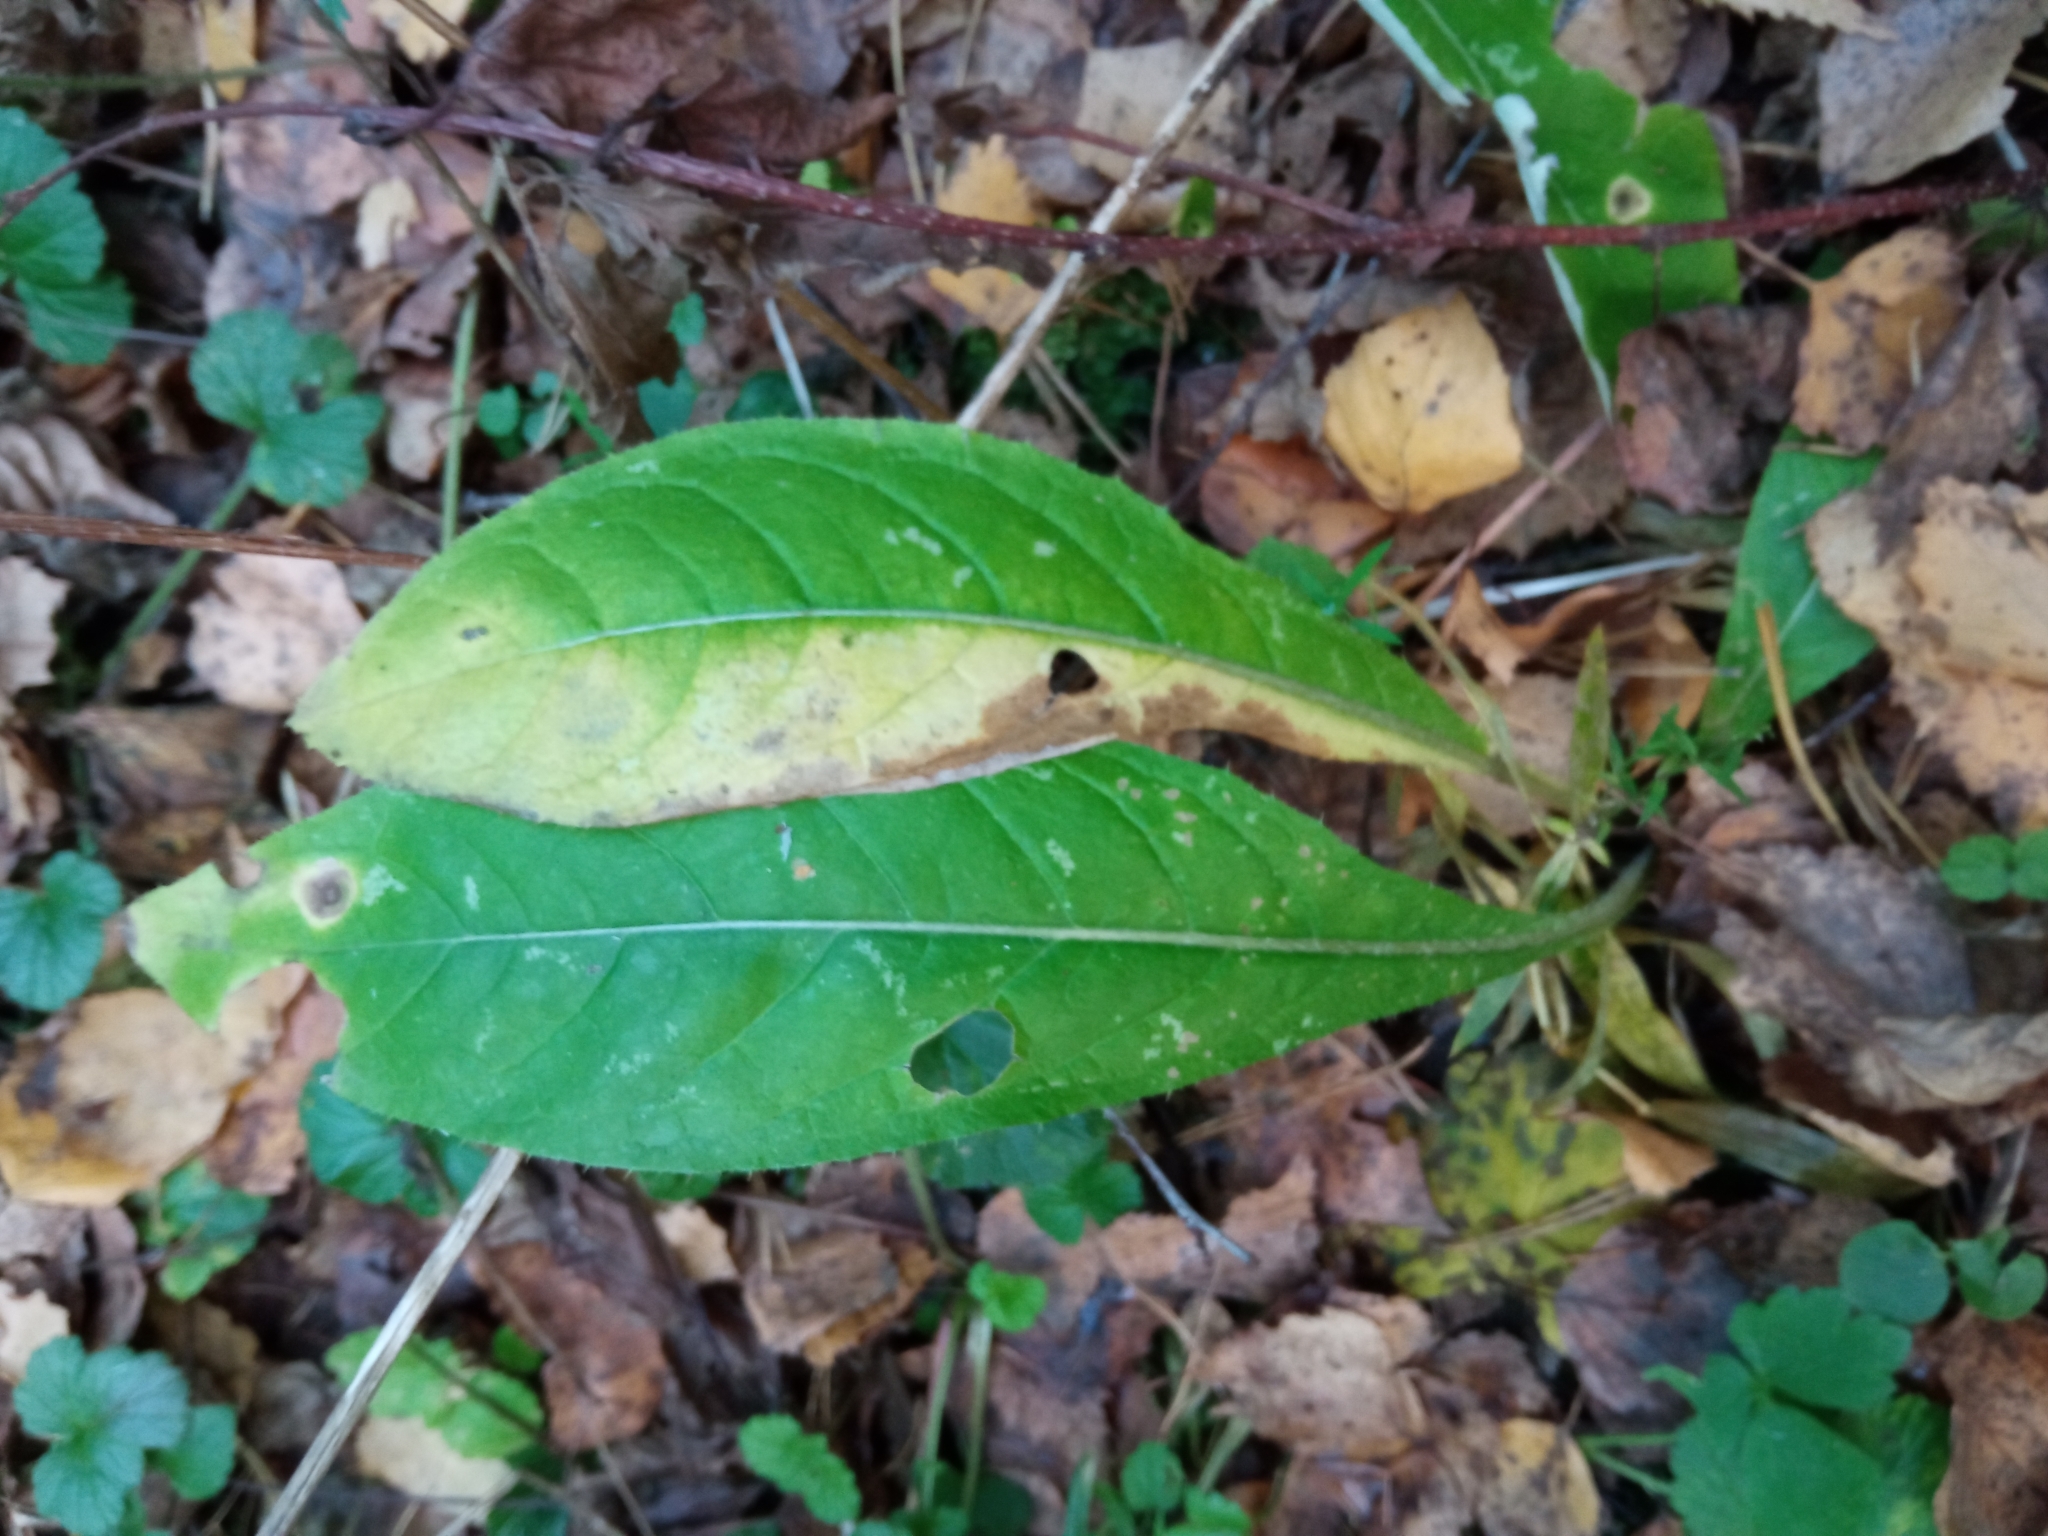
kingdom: Plantae
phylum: Tracheophyta
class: Magnoliopsida
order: Asterales
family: Asteraceae
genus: Cirsium
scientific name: Cirsium arvense
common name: Creeping thistle
